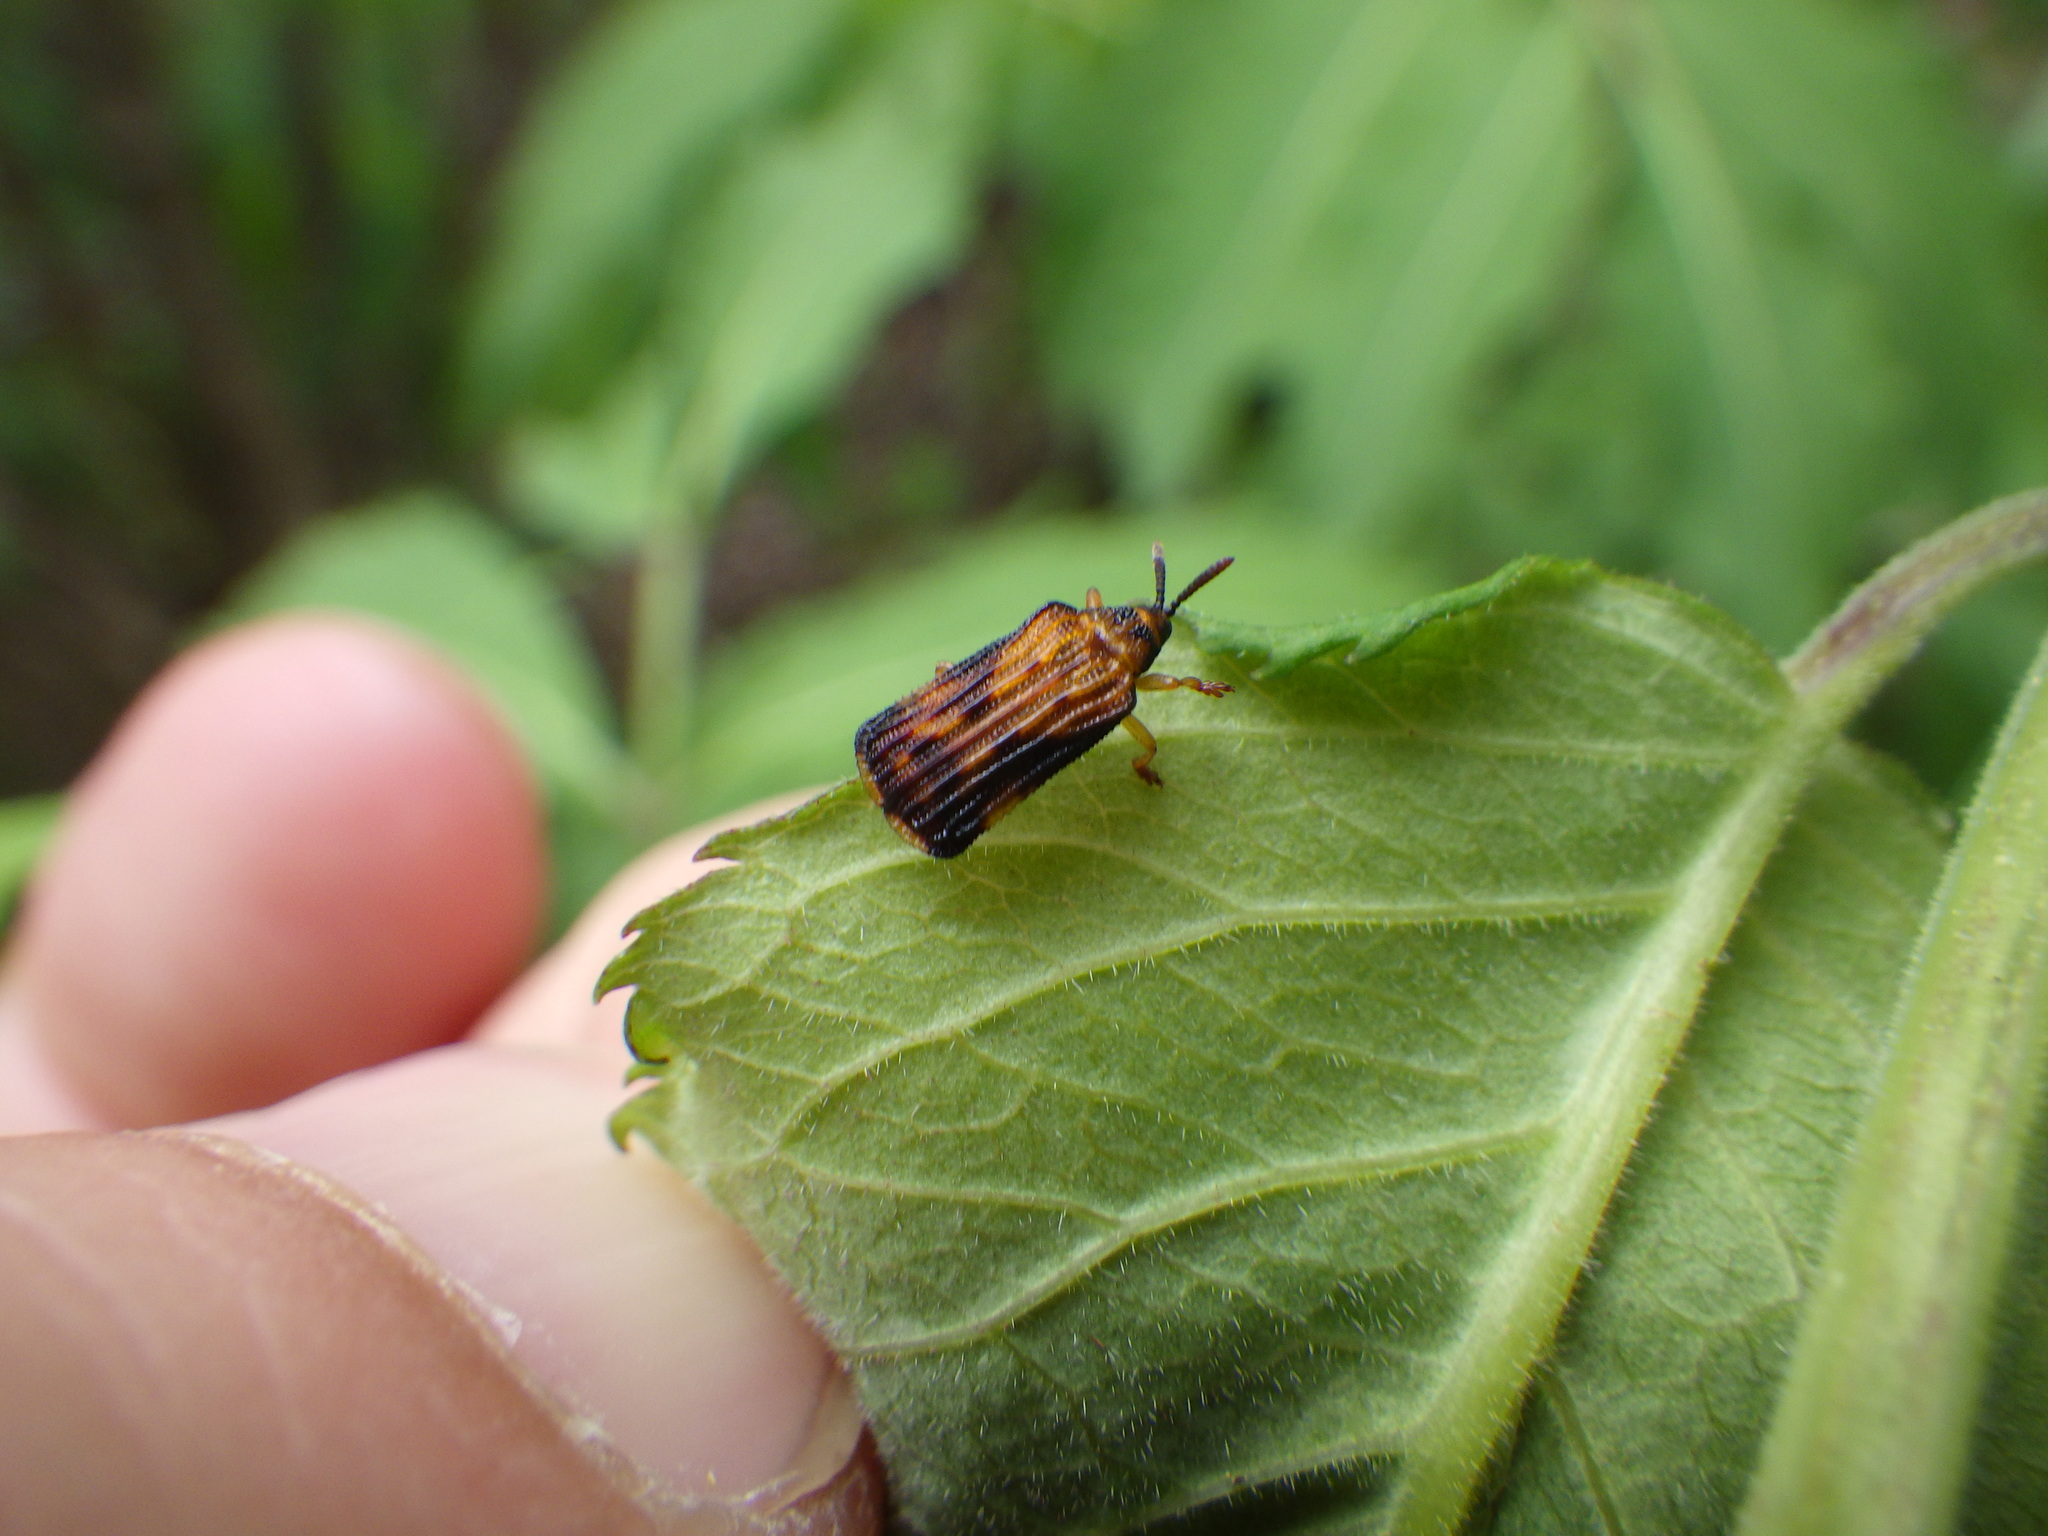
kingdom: Animalia
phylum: Arthropoda
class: Insecta
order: Coleoptera
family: Chrysomelidae
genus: Baliosus
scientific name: Baliosus nervosus
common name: Basswood leaf miner
